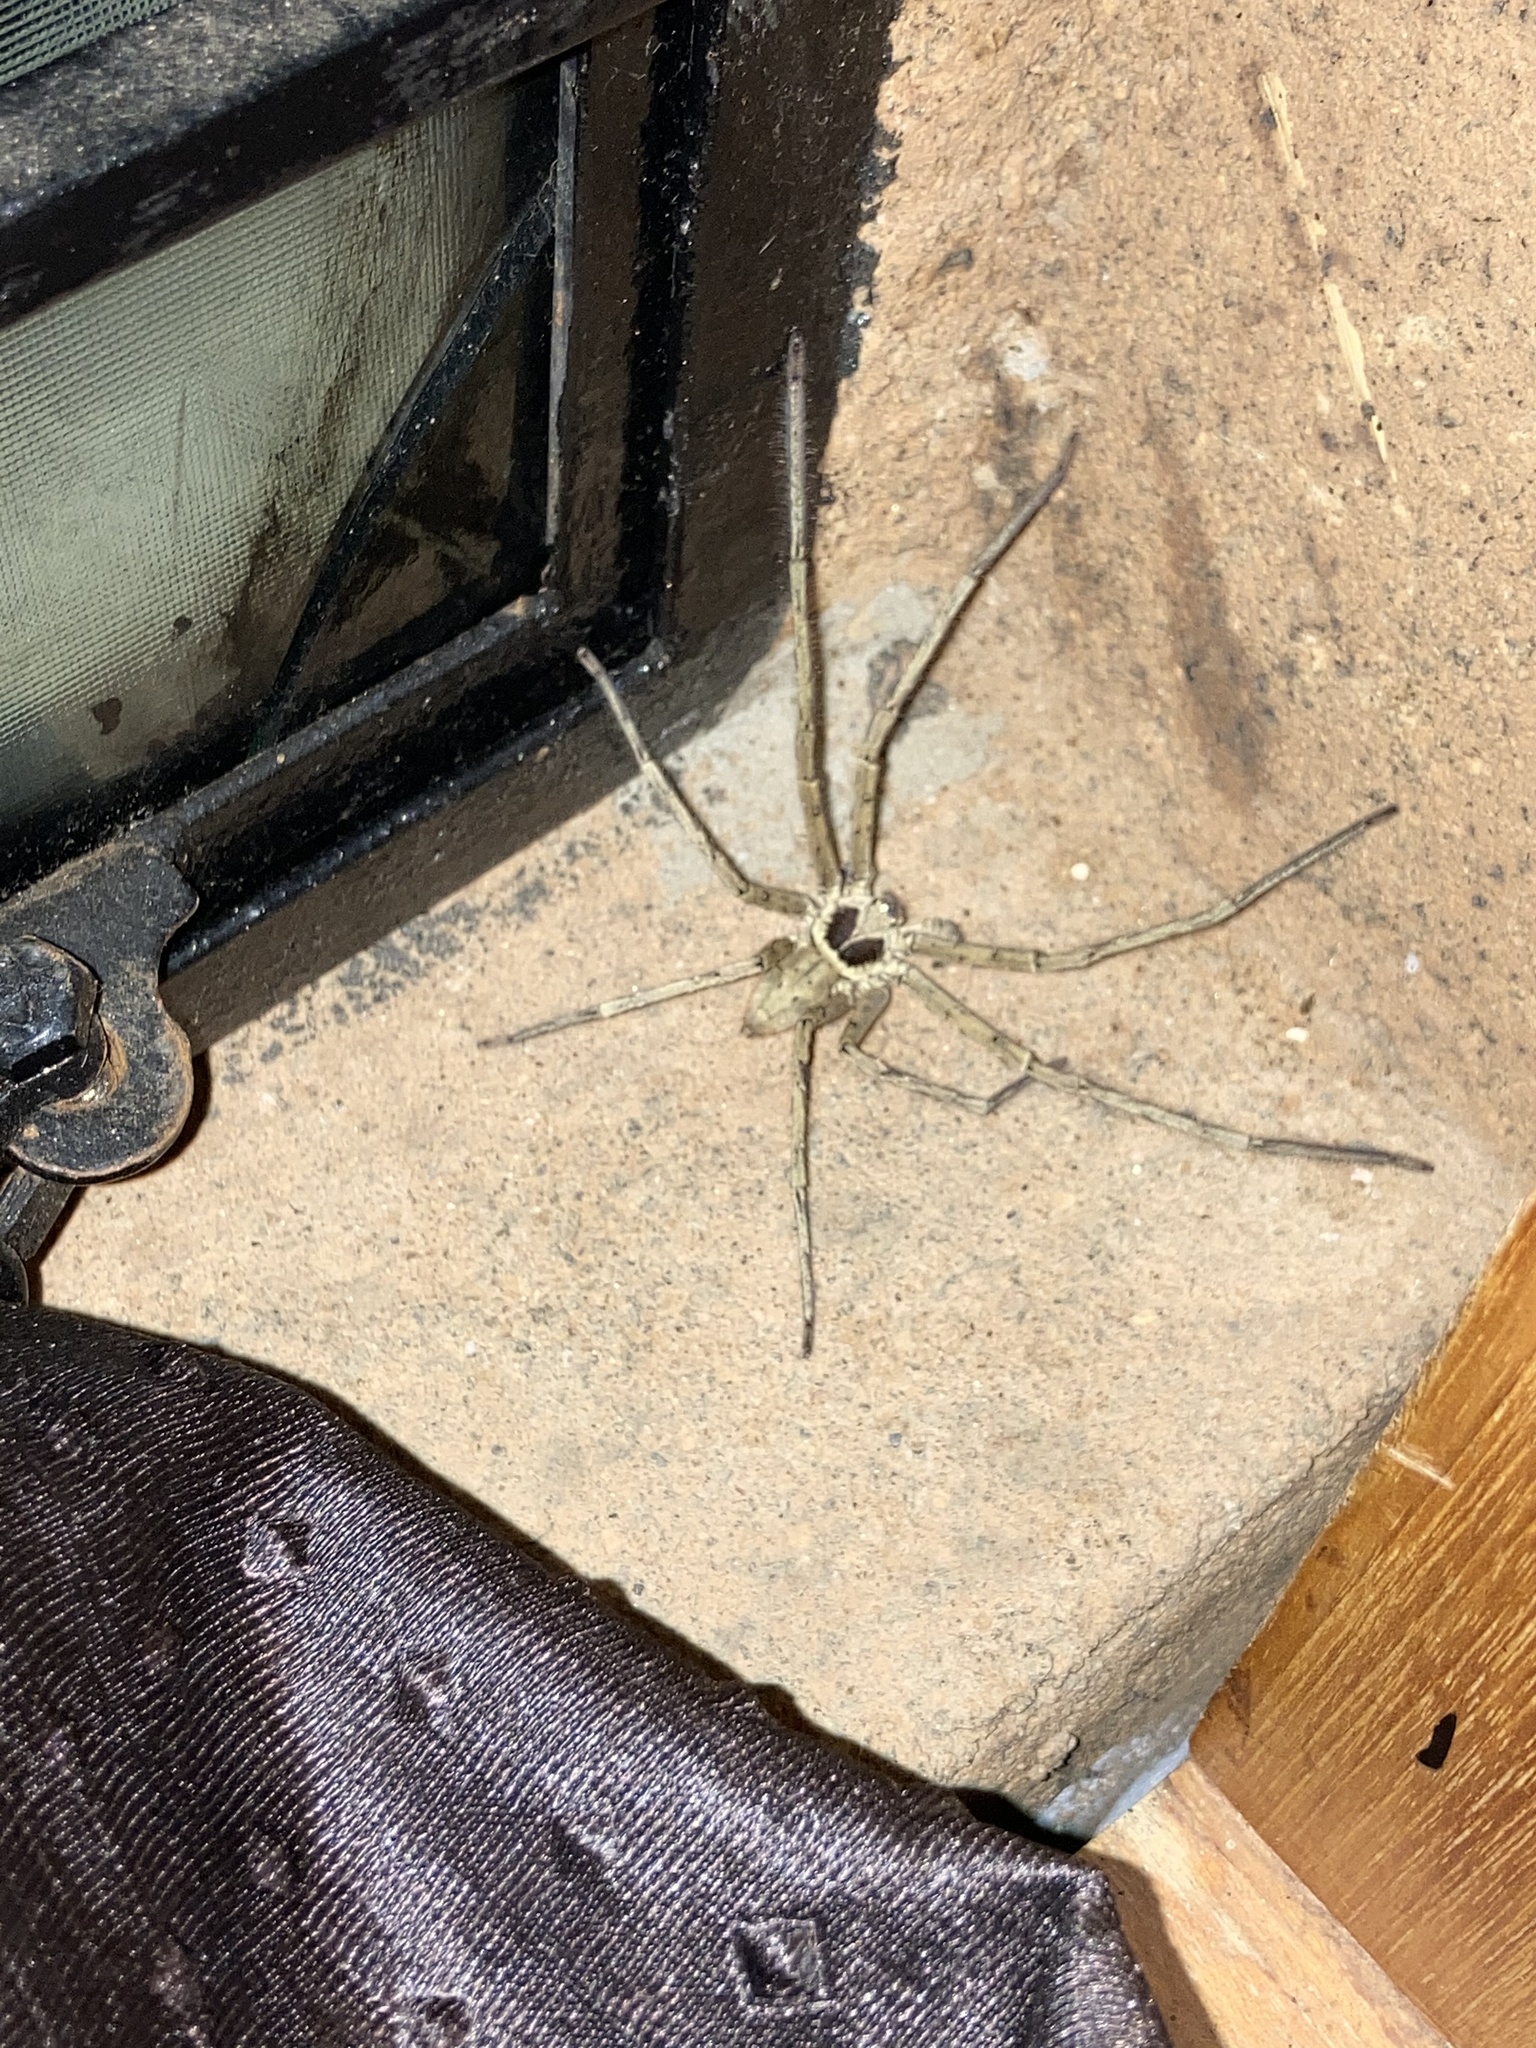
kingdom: Animalia
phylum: Arthropoda
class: Arachnida
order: Araneae
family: Sparassidae
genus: Heteropoda
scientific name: Heteropoda venatoria
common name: Huntsman spider
